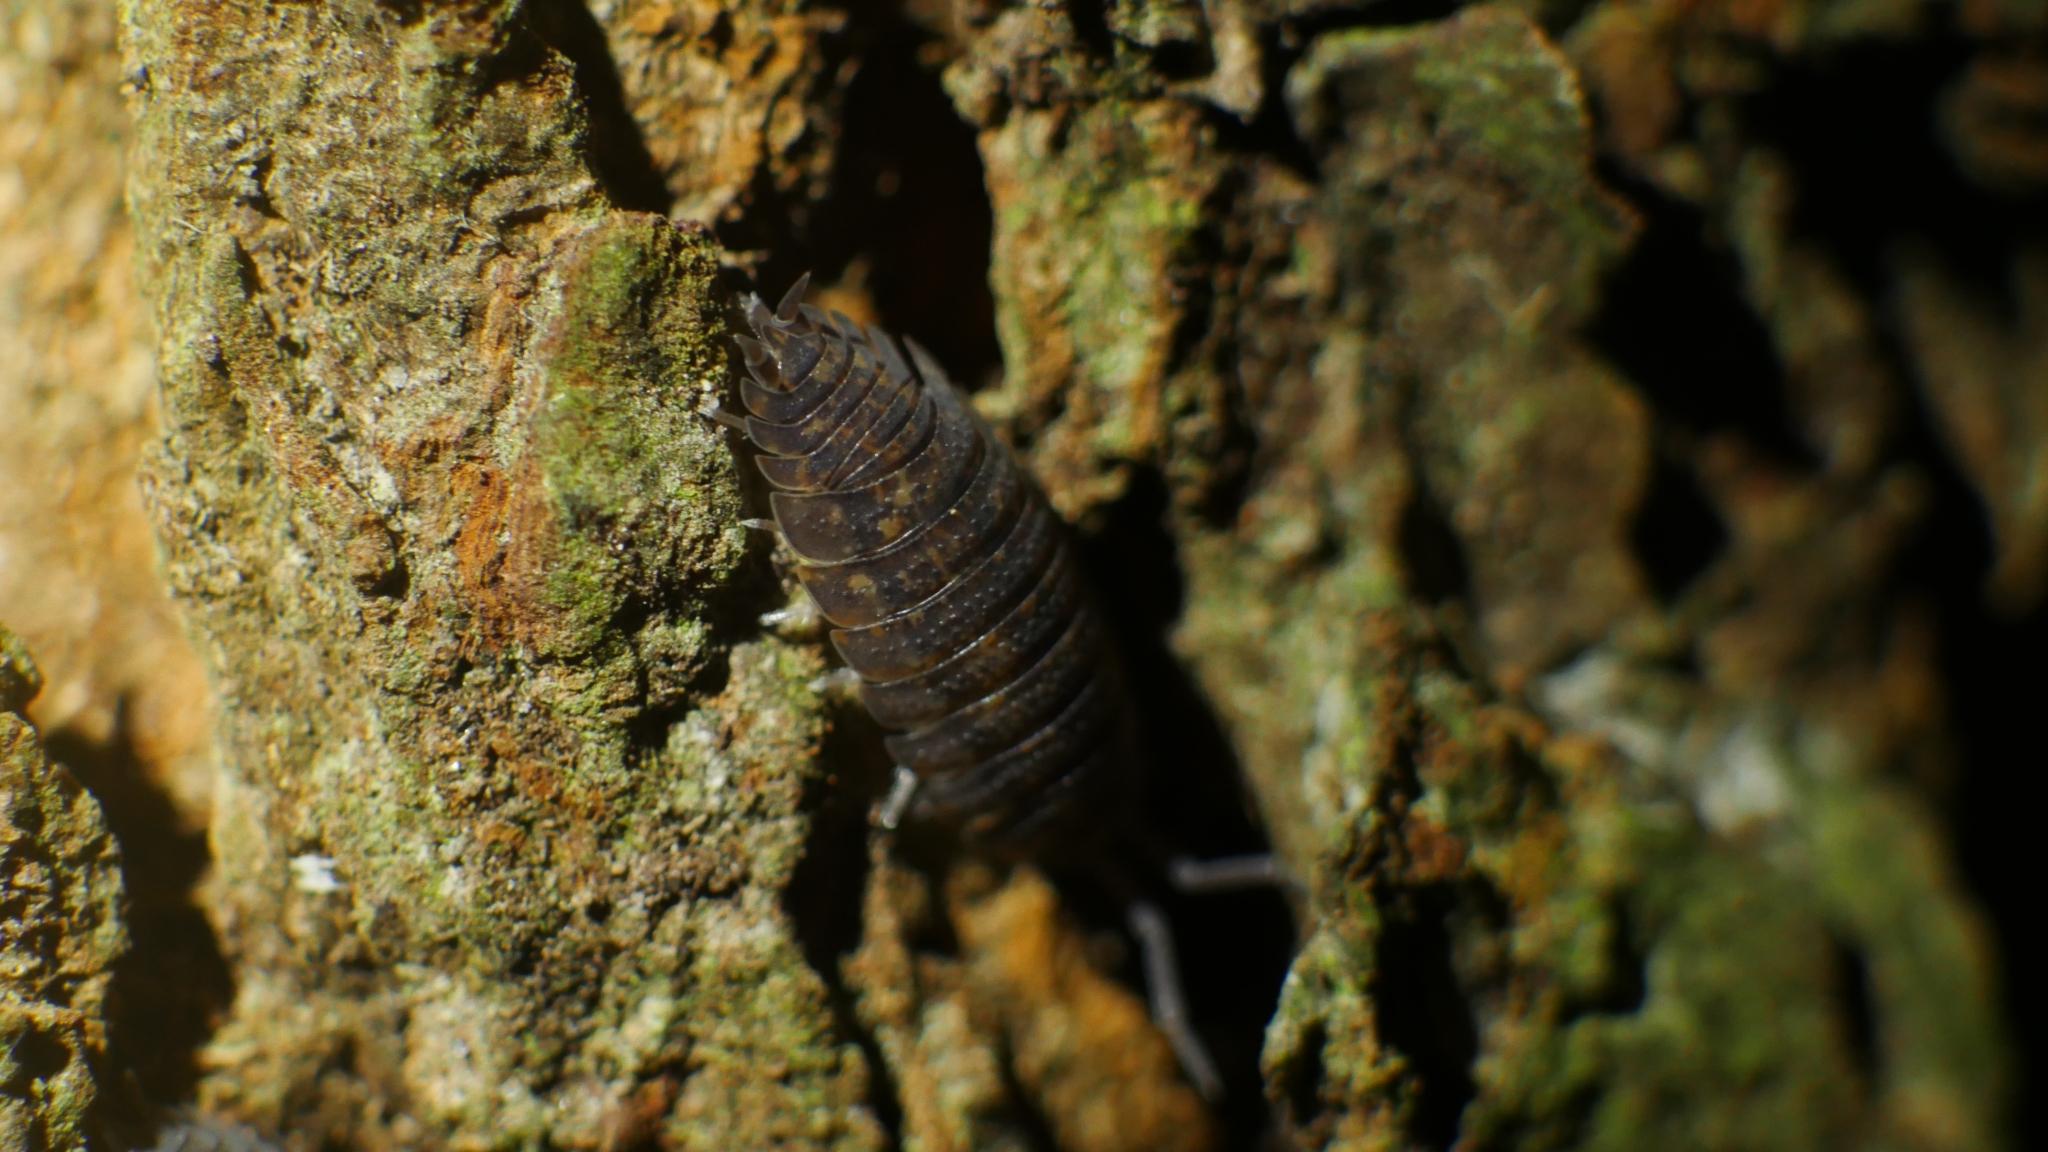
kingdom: Animalia
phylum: Arthropoda
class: Malacostraca
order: Isopoda
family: Porcellionidae
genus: Porcellio
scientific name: Porcellio scaber
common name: Common rough woodlouse
